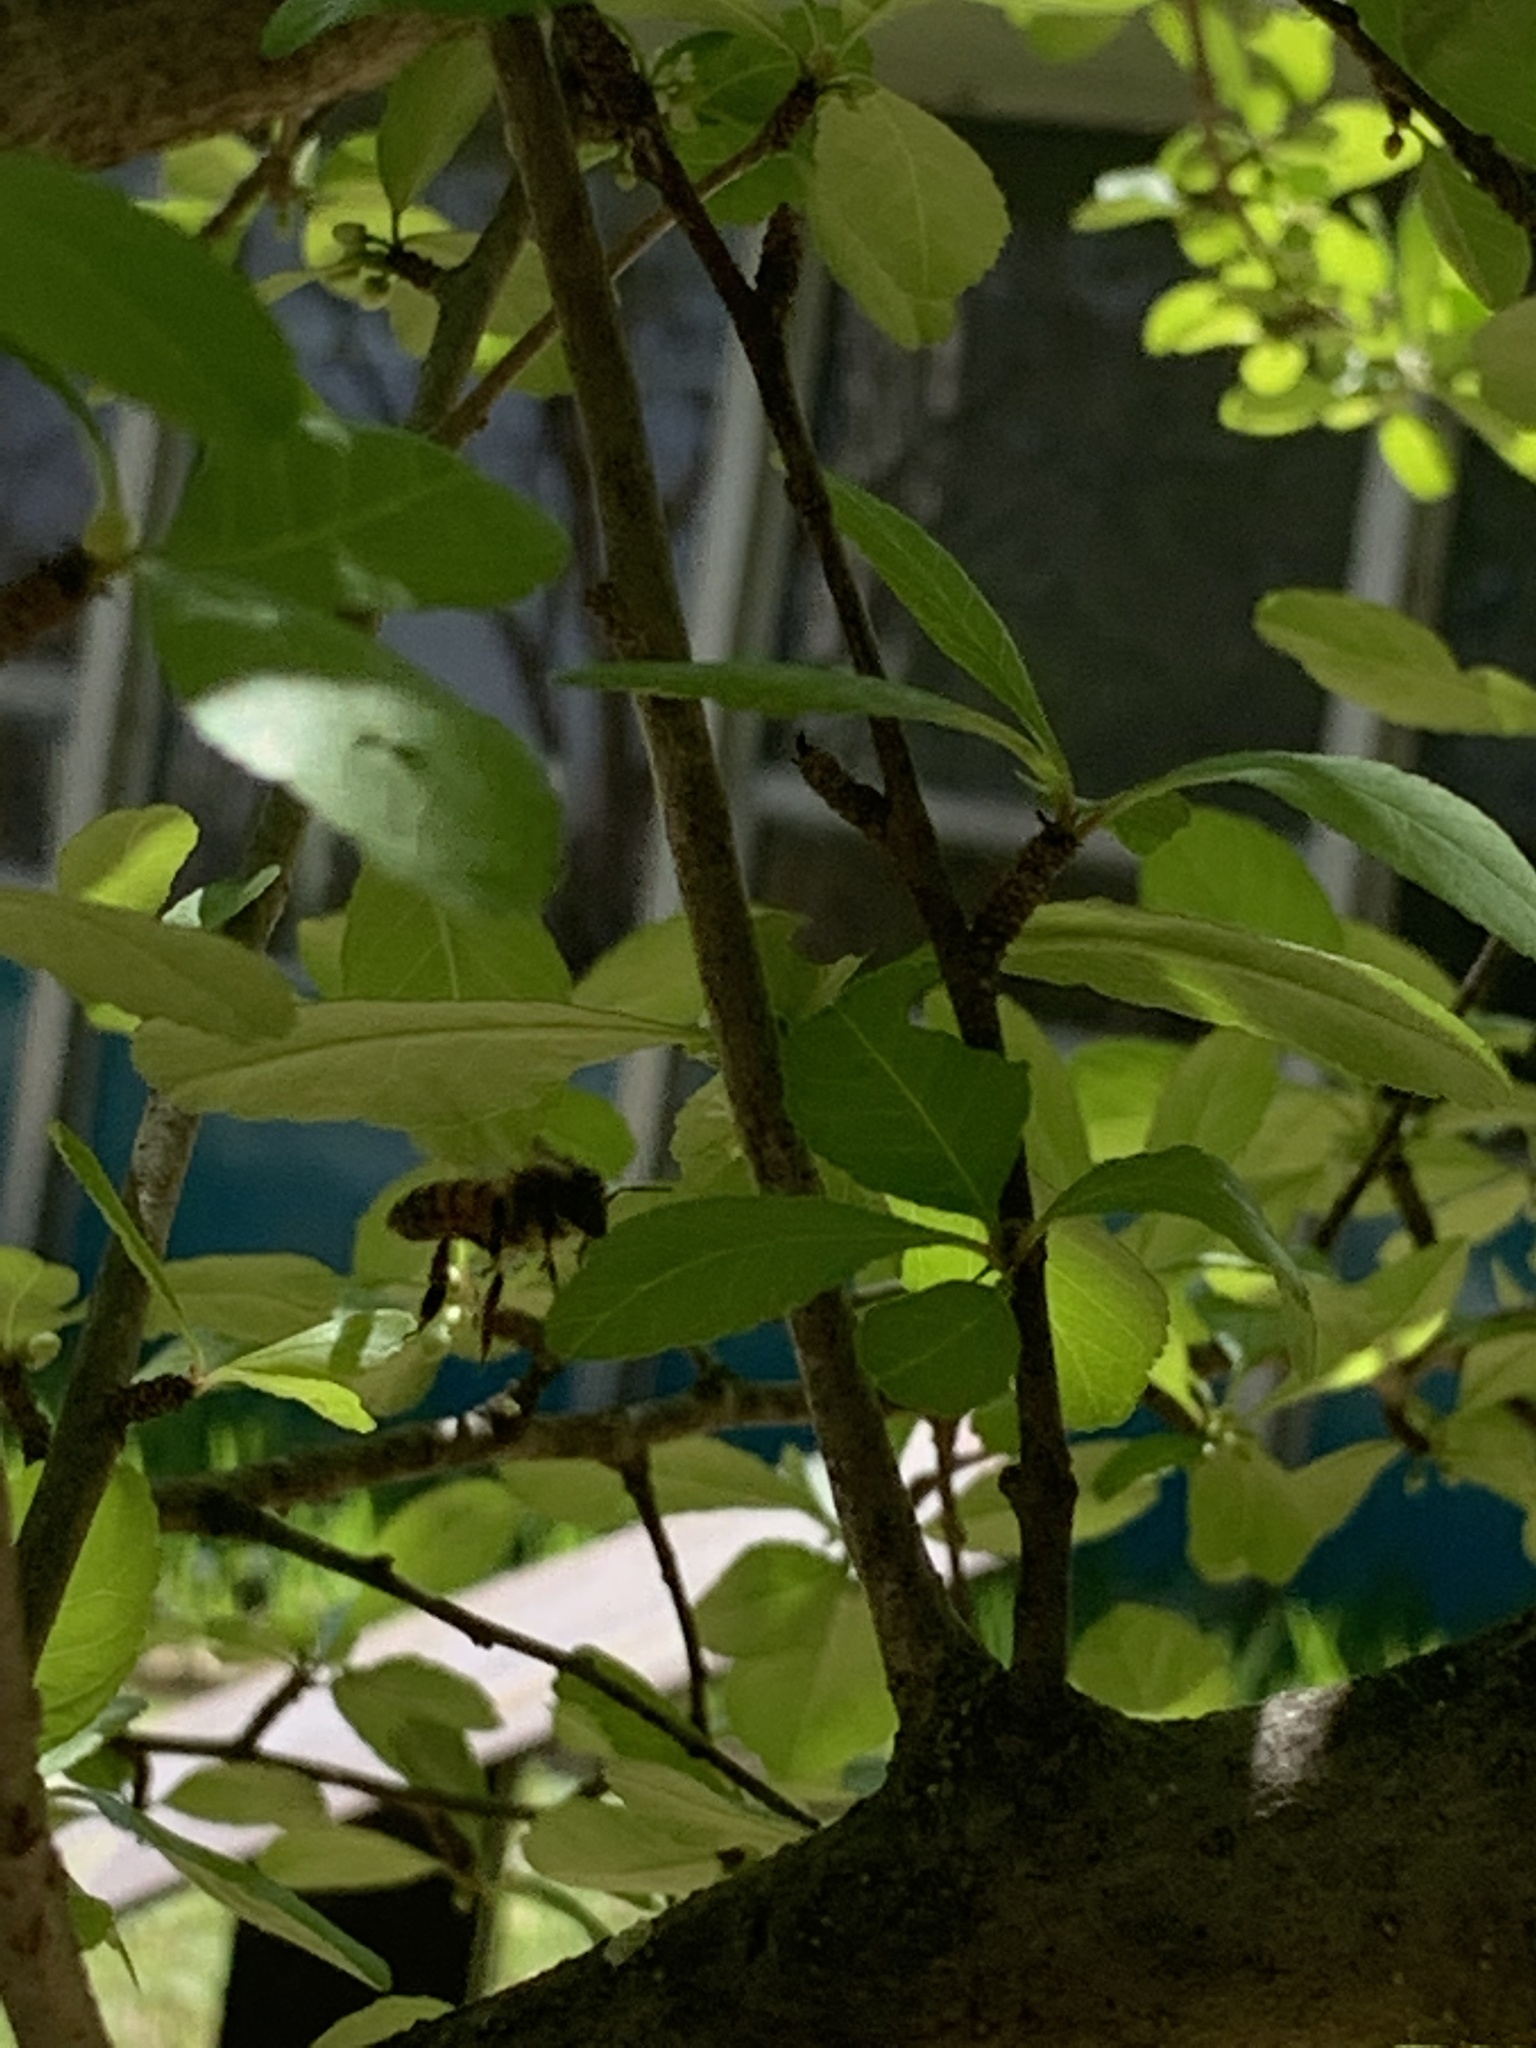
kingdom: Animalia
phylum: Arthropoda
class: Insecta
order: Hymenoptera
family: Apidae
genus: Apis
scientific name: Apis mellifera
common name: Honey bee
